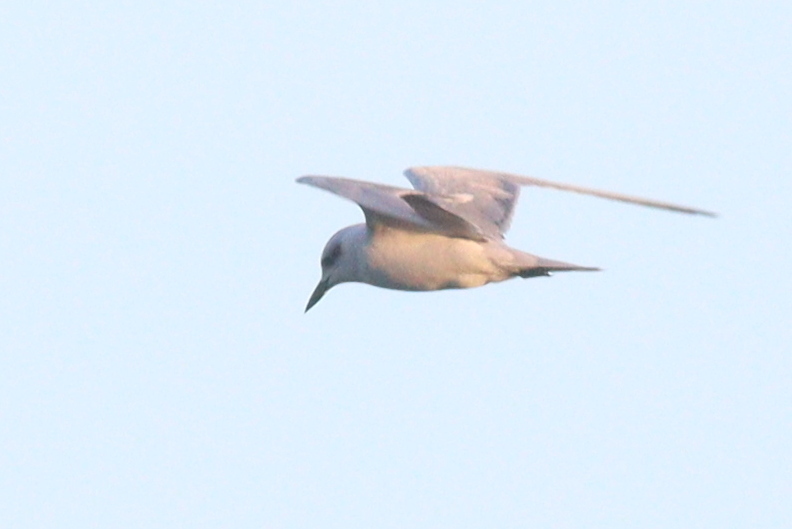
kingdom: Animalia
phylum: Chordata
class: Aves
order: Charadriiformes
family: Laridae
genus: Gelochelidon
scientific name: Gelochelidon nilotica
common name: Gull-billed tern
